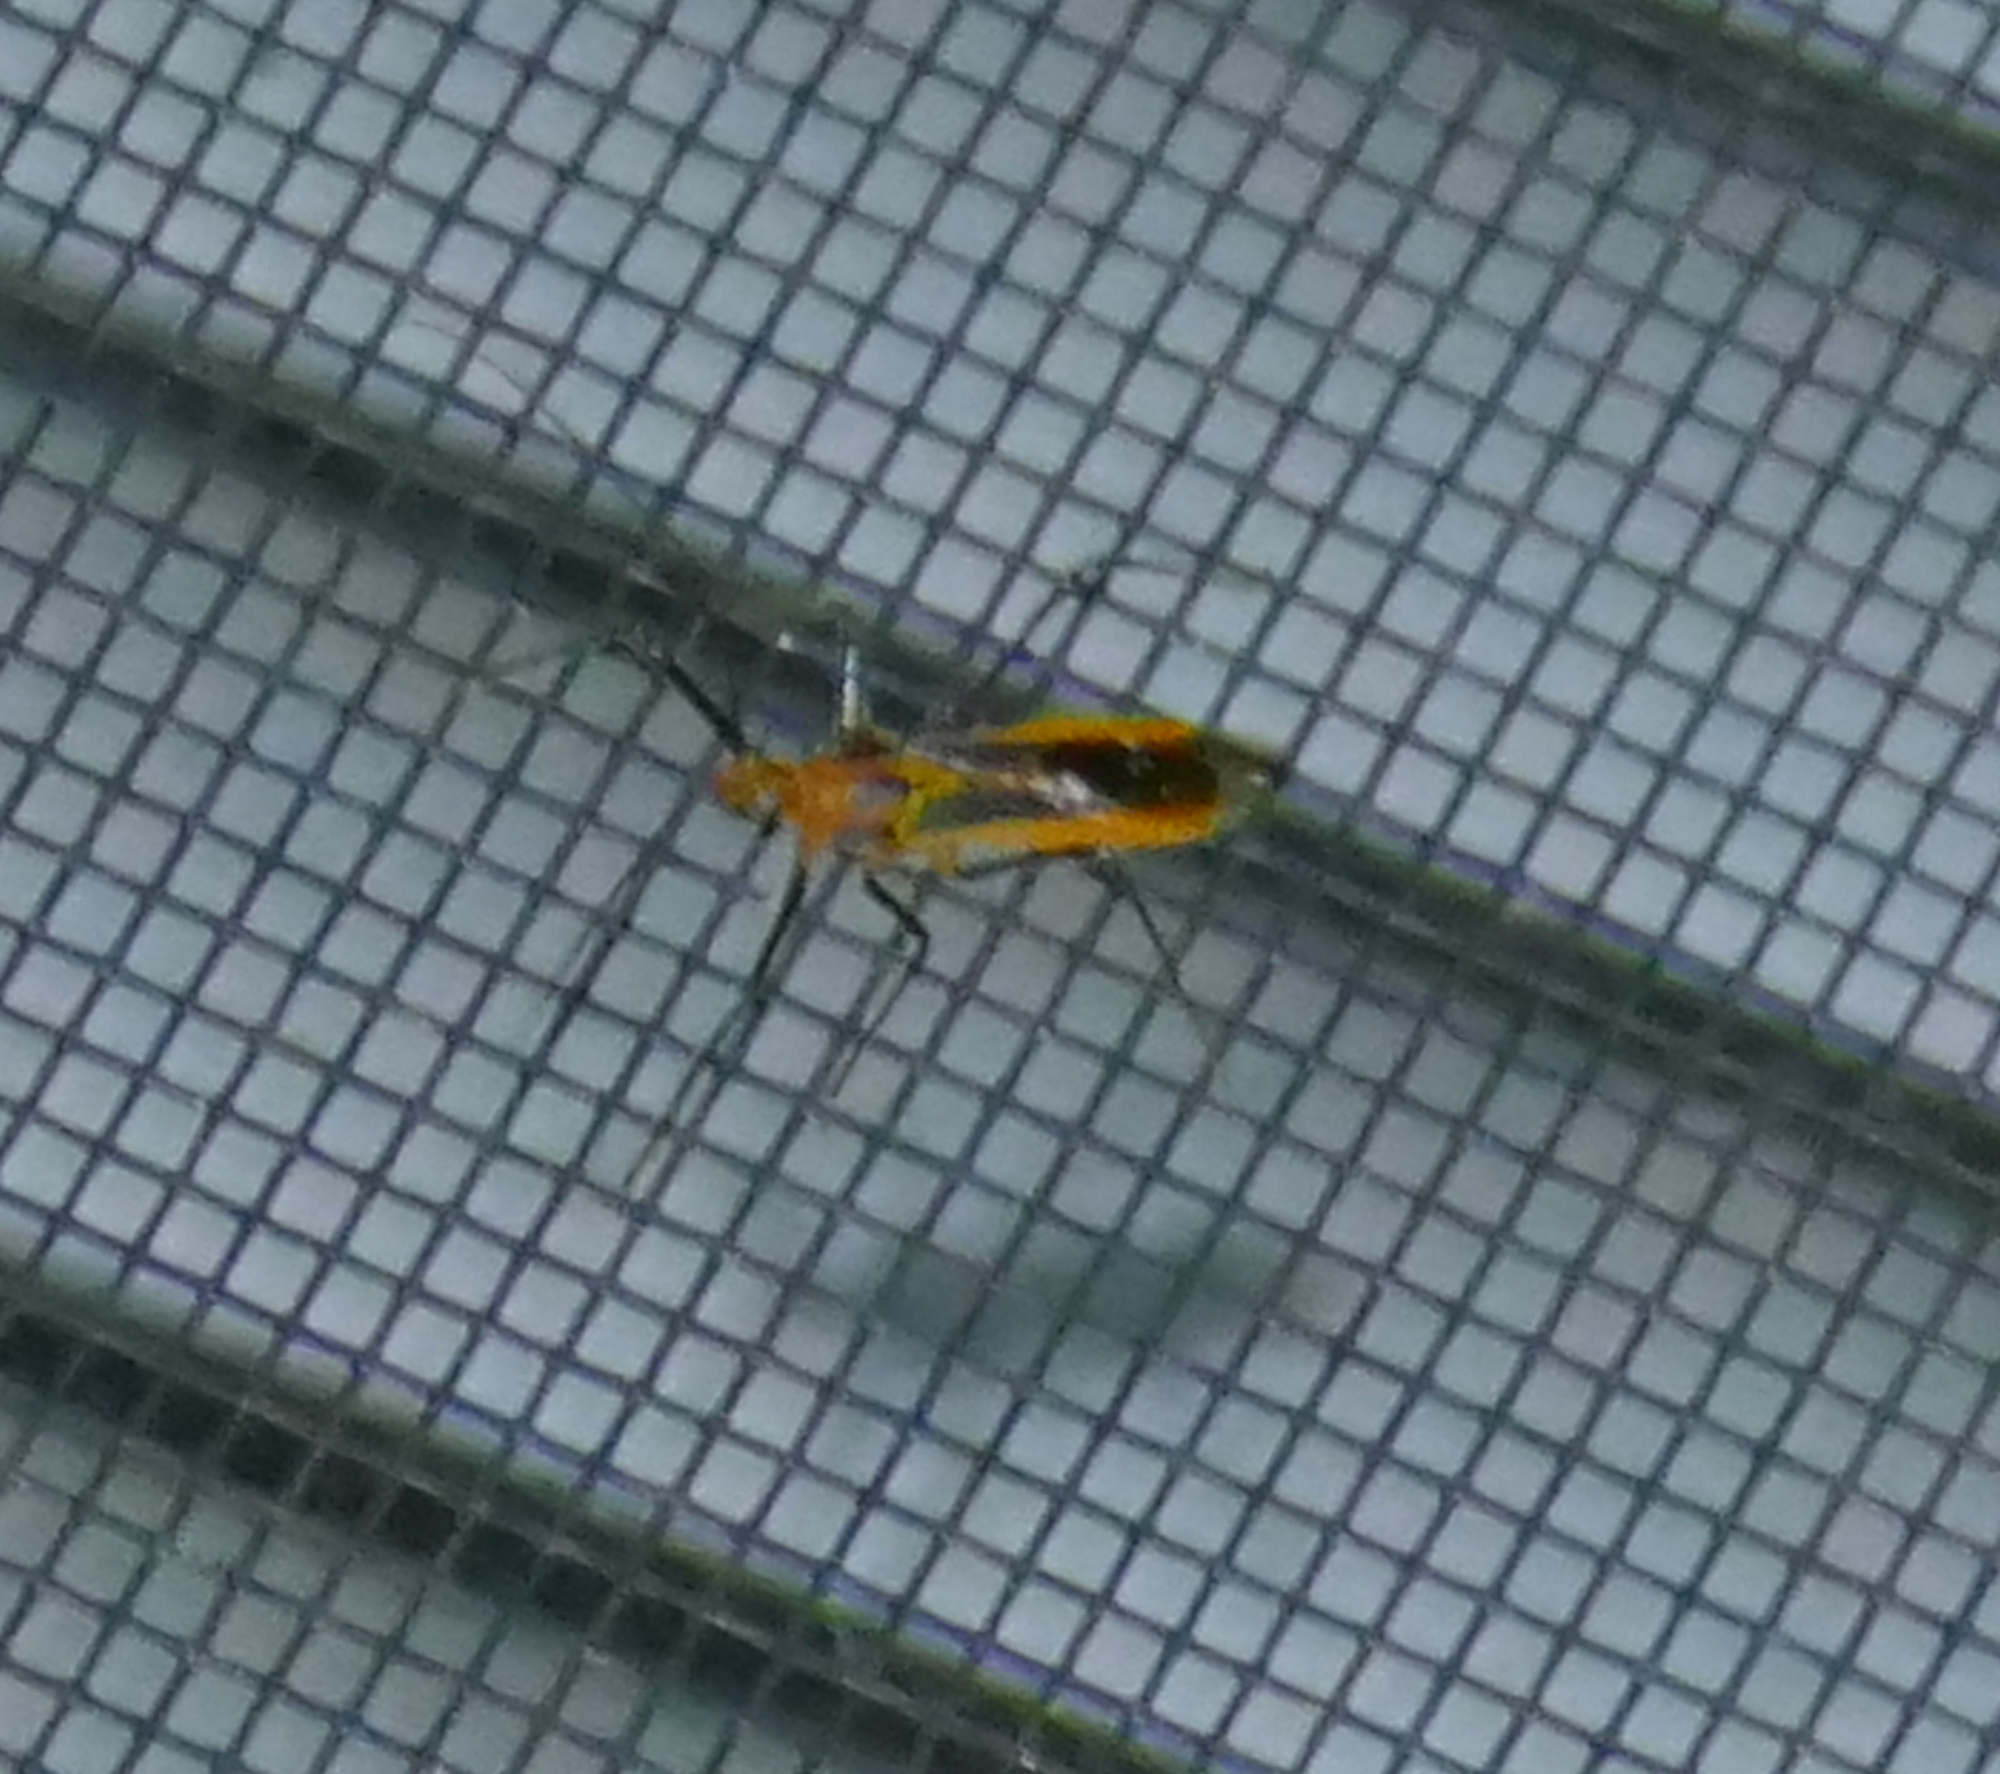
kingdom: Animalia
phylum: Arthropoda
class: Insecta
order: Hemiptera
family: Reduviidae
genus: Repipta
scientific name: Repipta taurus
